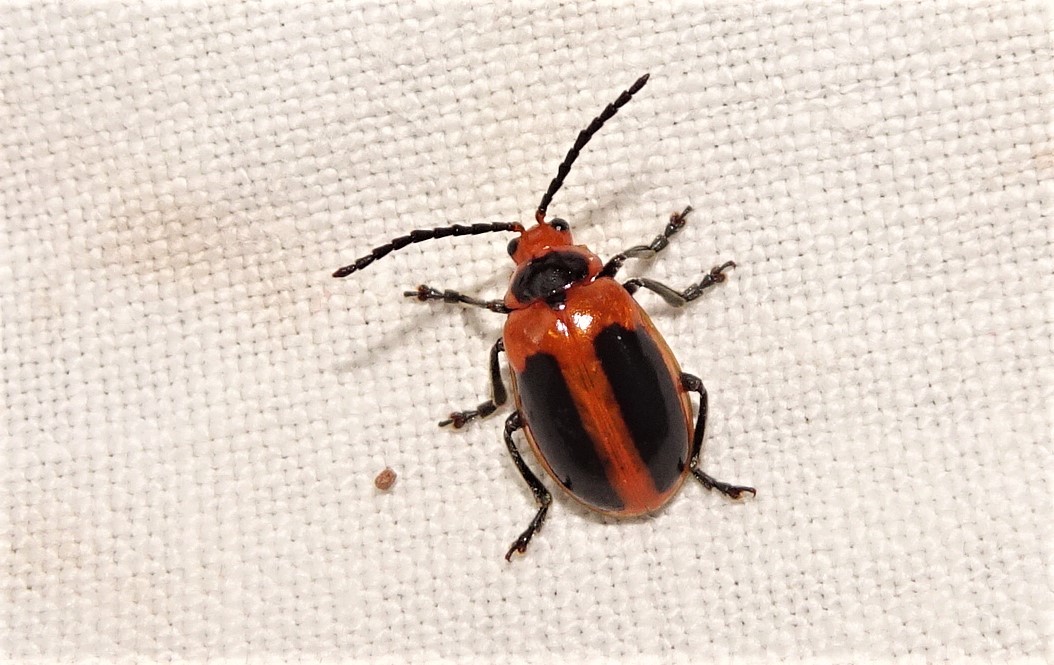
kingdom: Animalia
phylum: Arthropoda
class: Insecta
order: Coleoptera
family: Chrysomelidae
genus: Oides
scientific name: Oides
